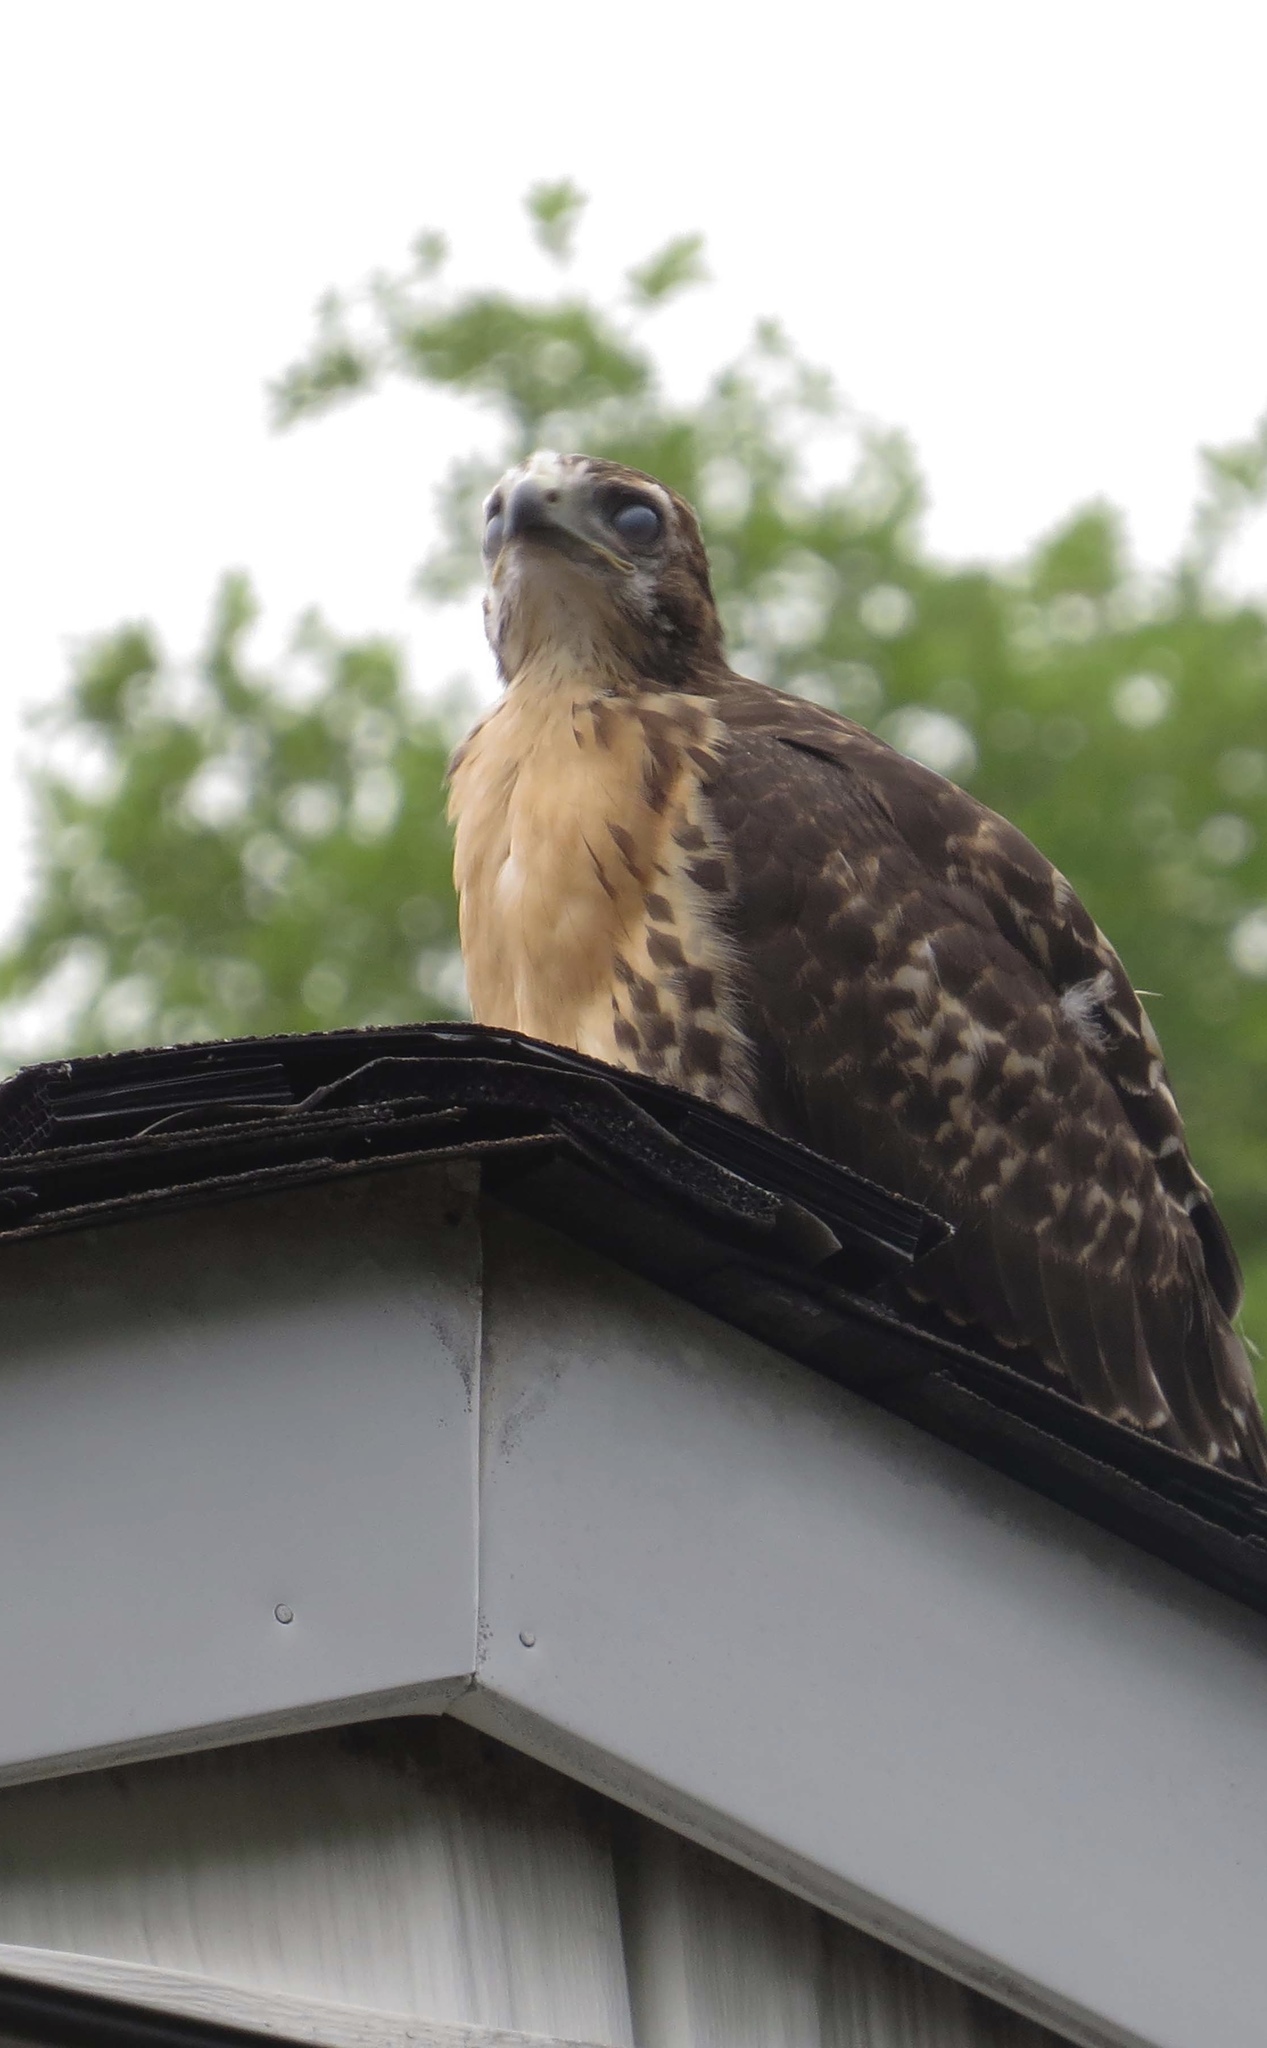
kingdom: Animalia
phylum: Chordata
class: Aves
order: Accipitriformes
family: Accipitridae
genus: Buteo
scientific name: Buteo jamaicensis
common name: Red-tailed hawk
